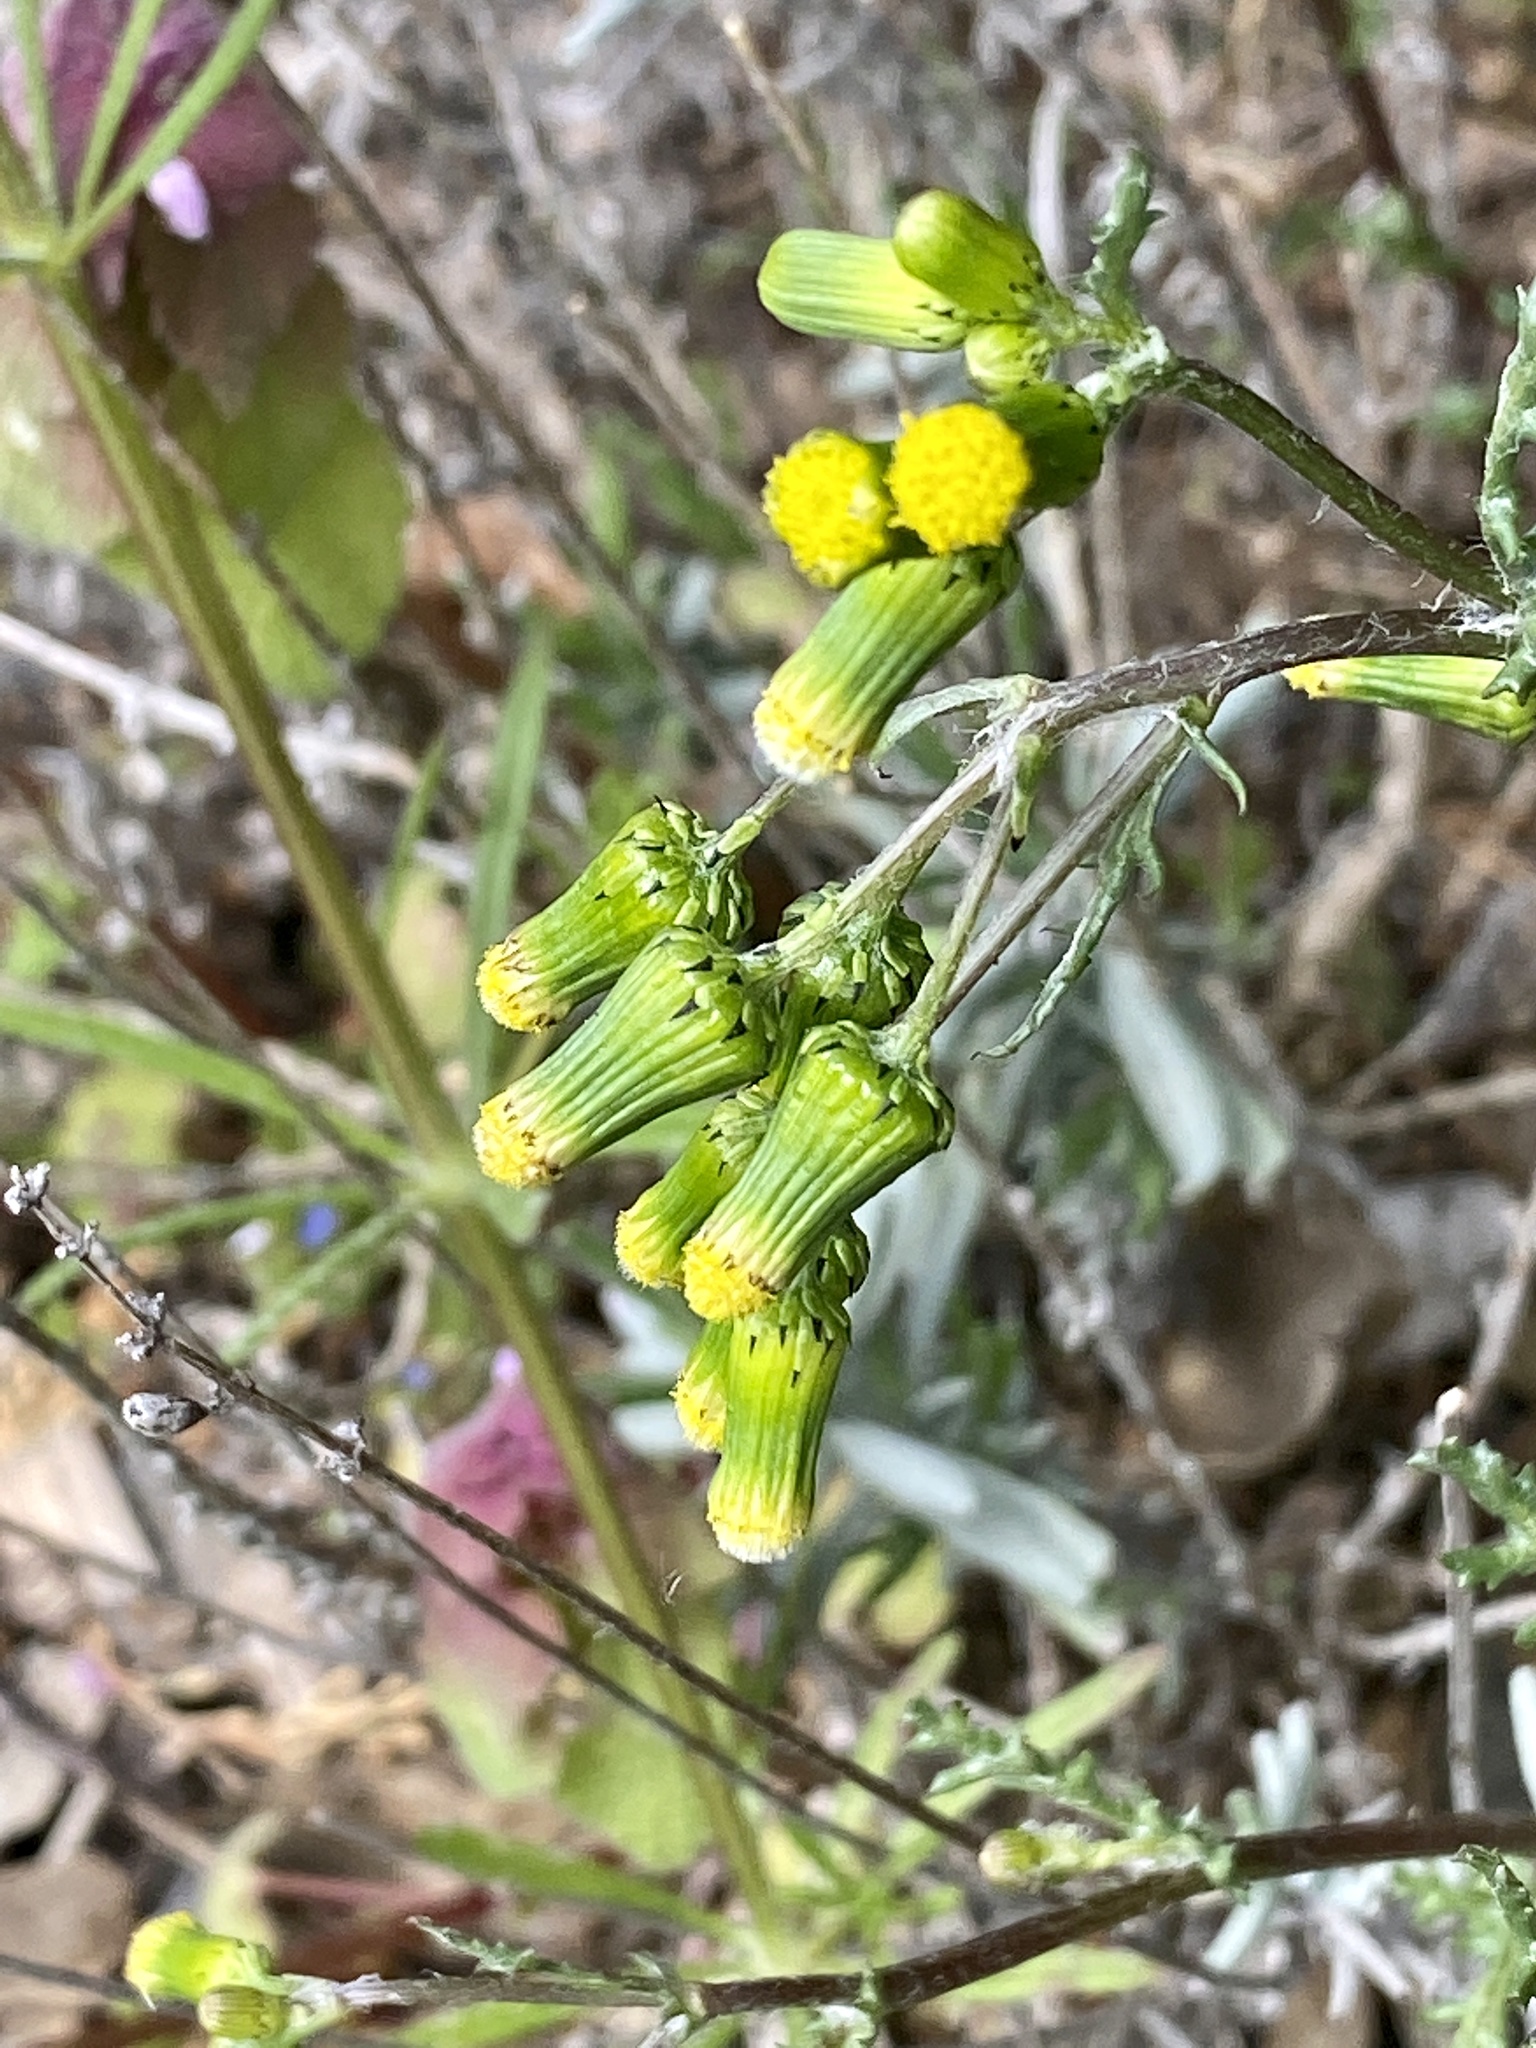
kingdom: Plantae
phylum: Tracheophyta
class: Magnoliopsida
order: Asterales
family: Asteraceae
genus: Senecio
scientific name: Senecio vulgaris
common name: Old-man-in-the-spring
